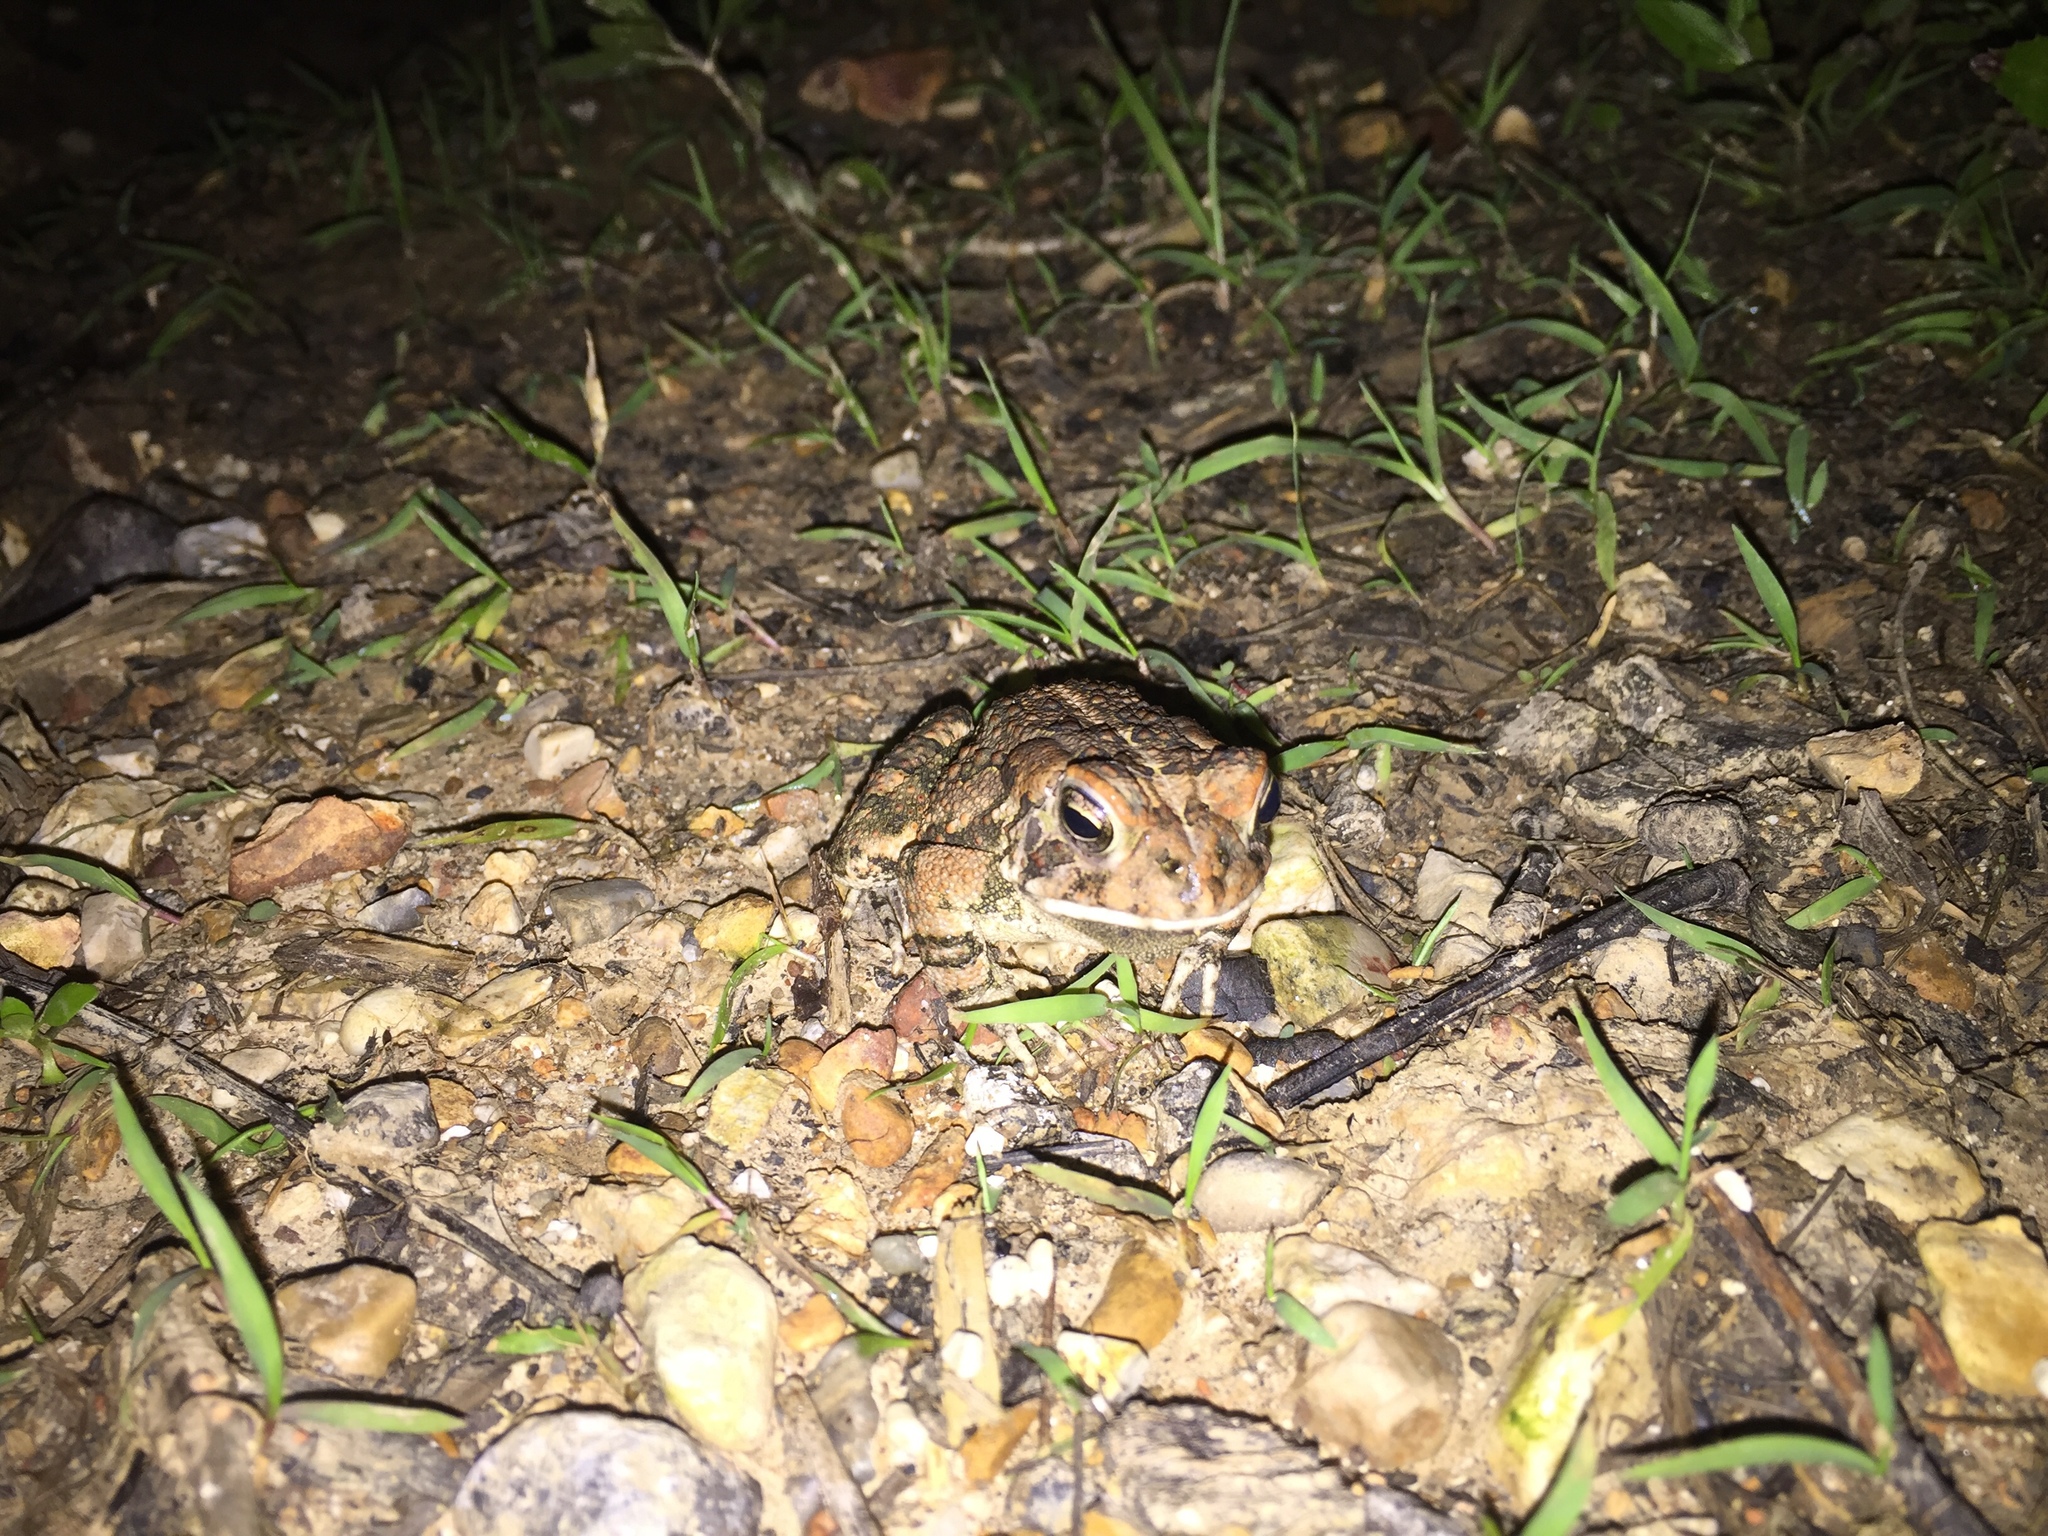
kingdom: Animalia
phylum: Chordata
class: Amphibia
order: Anura
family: Bufonidae
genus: Anaxyrus
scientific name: Anaxyrus fowleri
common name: Fowler's toad
